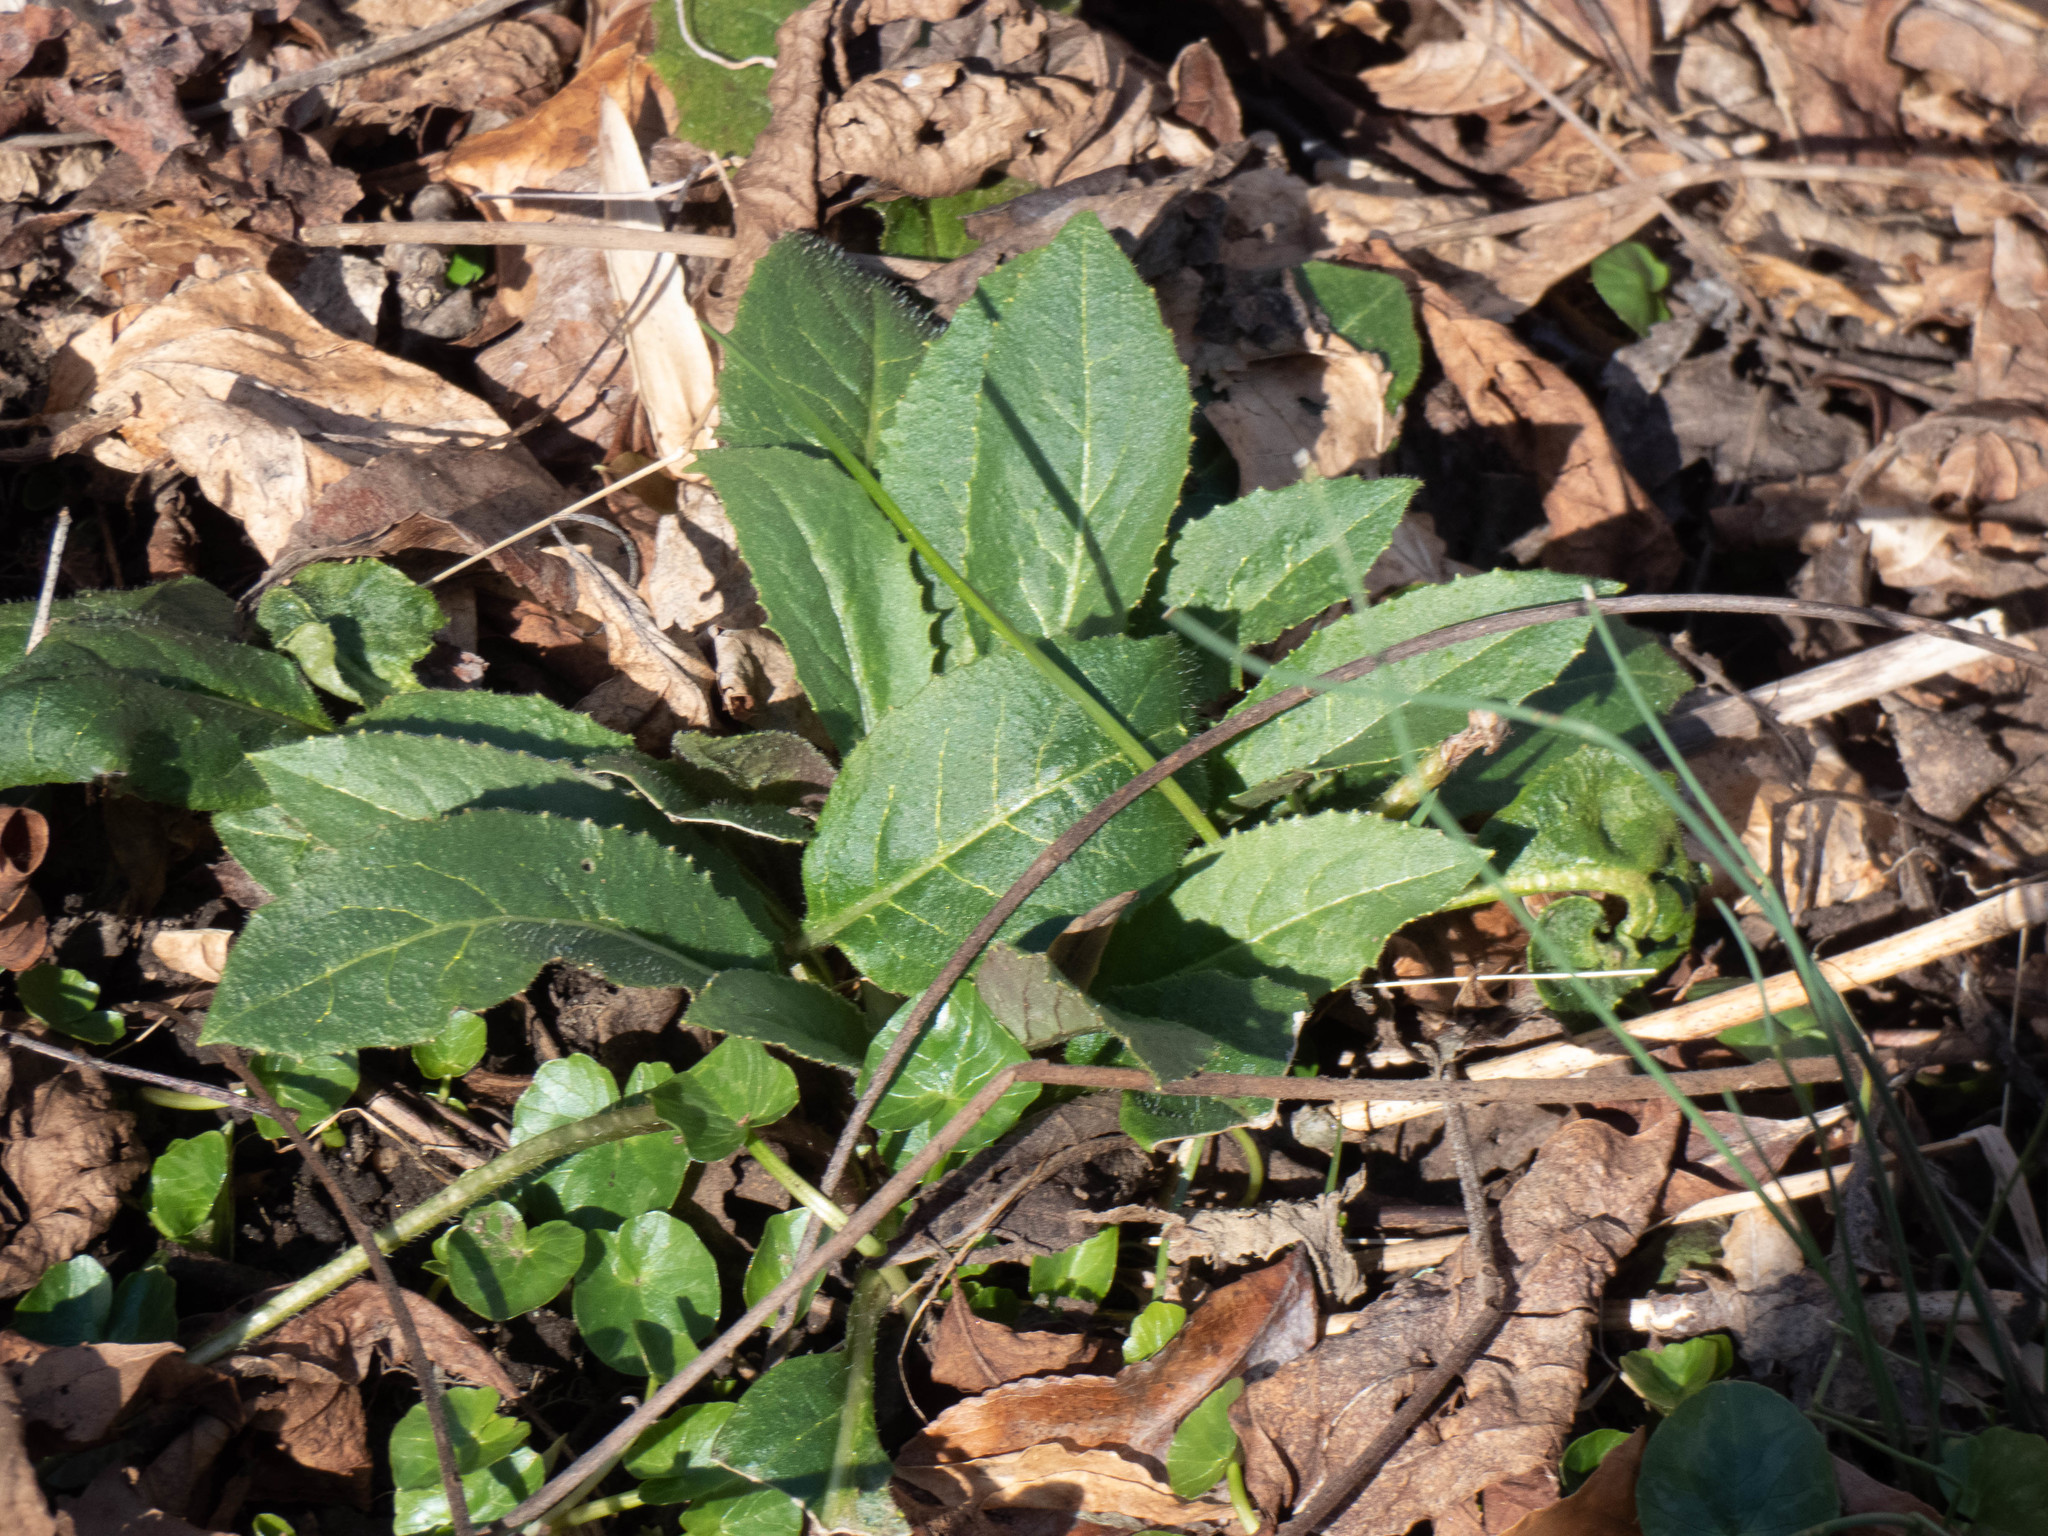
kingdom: Plantae
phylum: Tracheophyta
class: Magnoliopsida
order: Brassicales
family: Brassicaceae
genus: Hesperis
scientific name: Hesperis matronalis
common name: Dame's-violet
